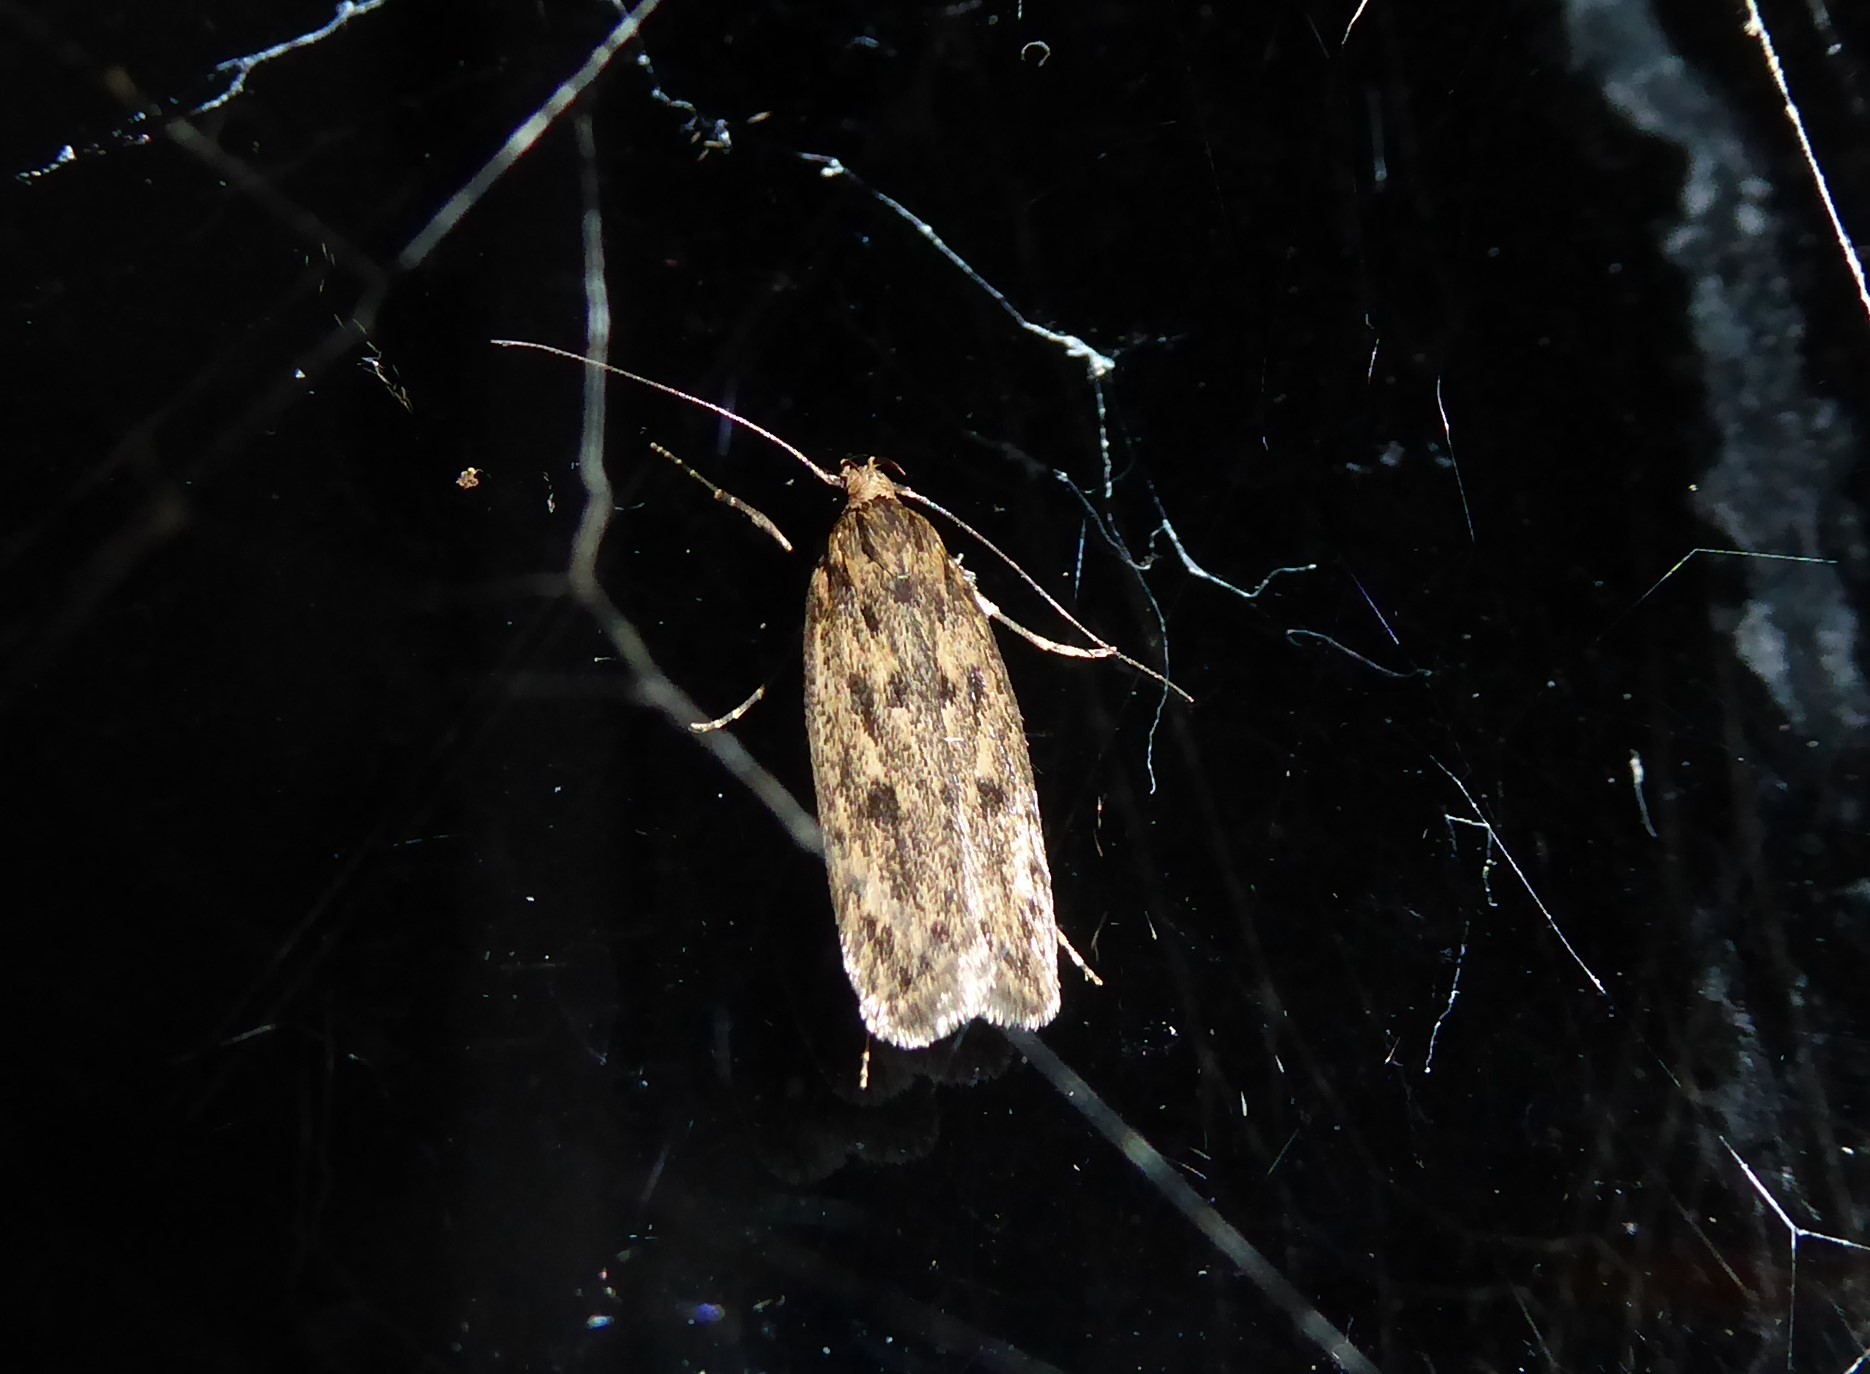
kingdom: Animalia
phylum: Arthropoda
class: Insecta
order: Lepidoptera
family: Oecophoridae
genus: Hofmannophila
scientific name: Hofmannophila pseudospretella
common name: Brown house moth
